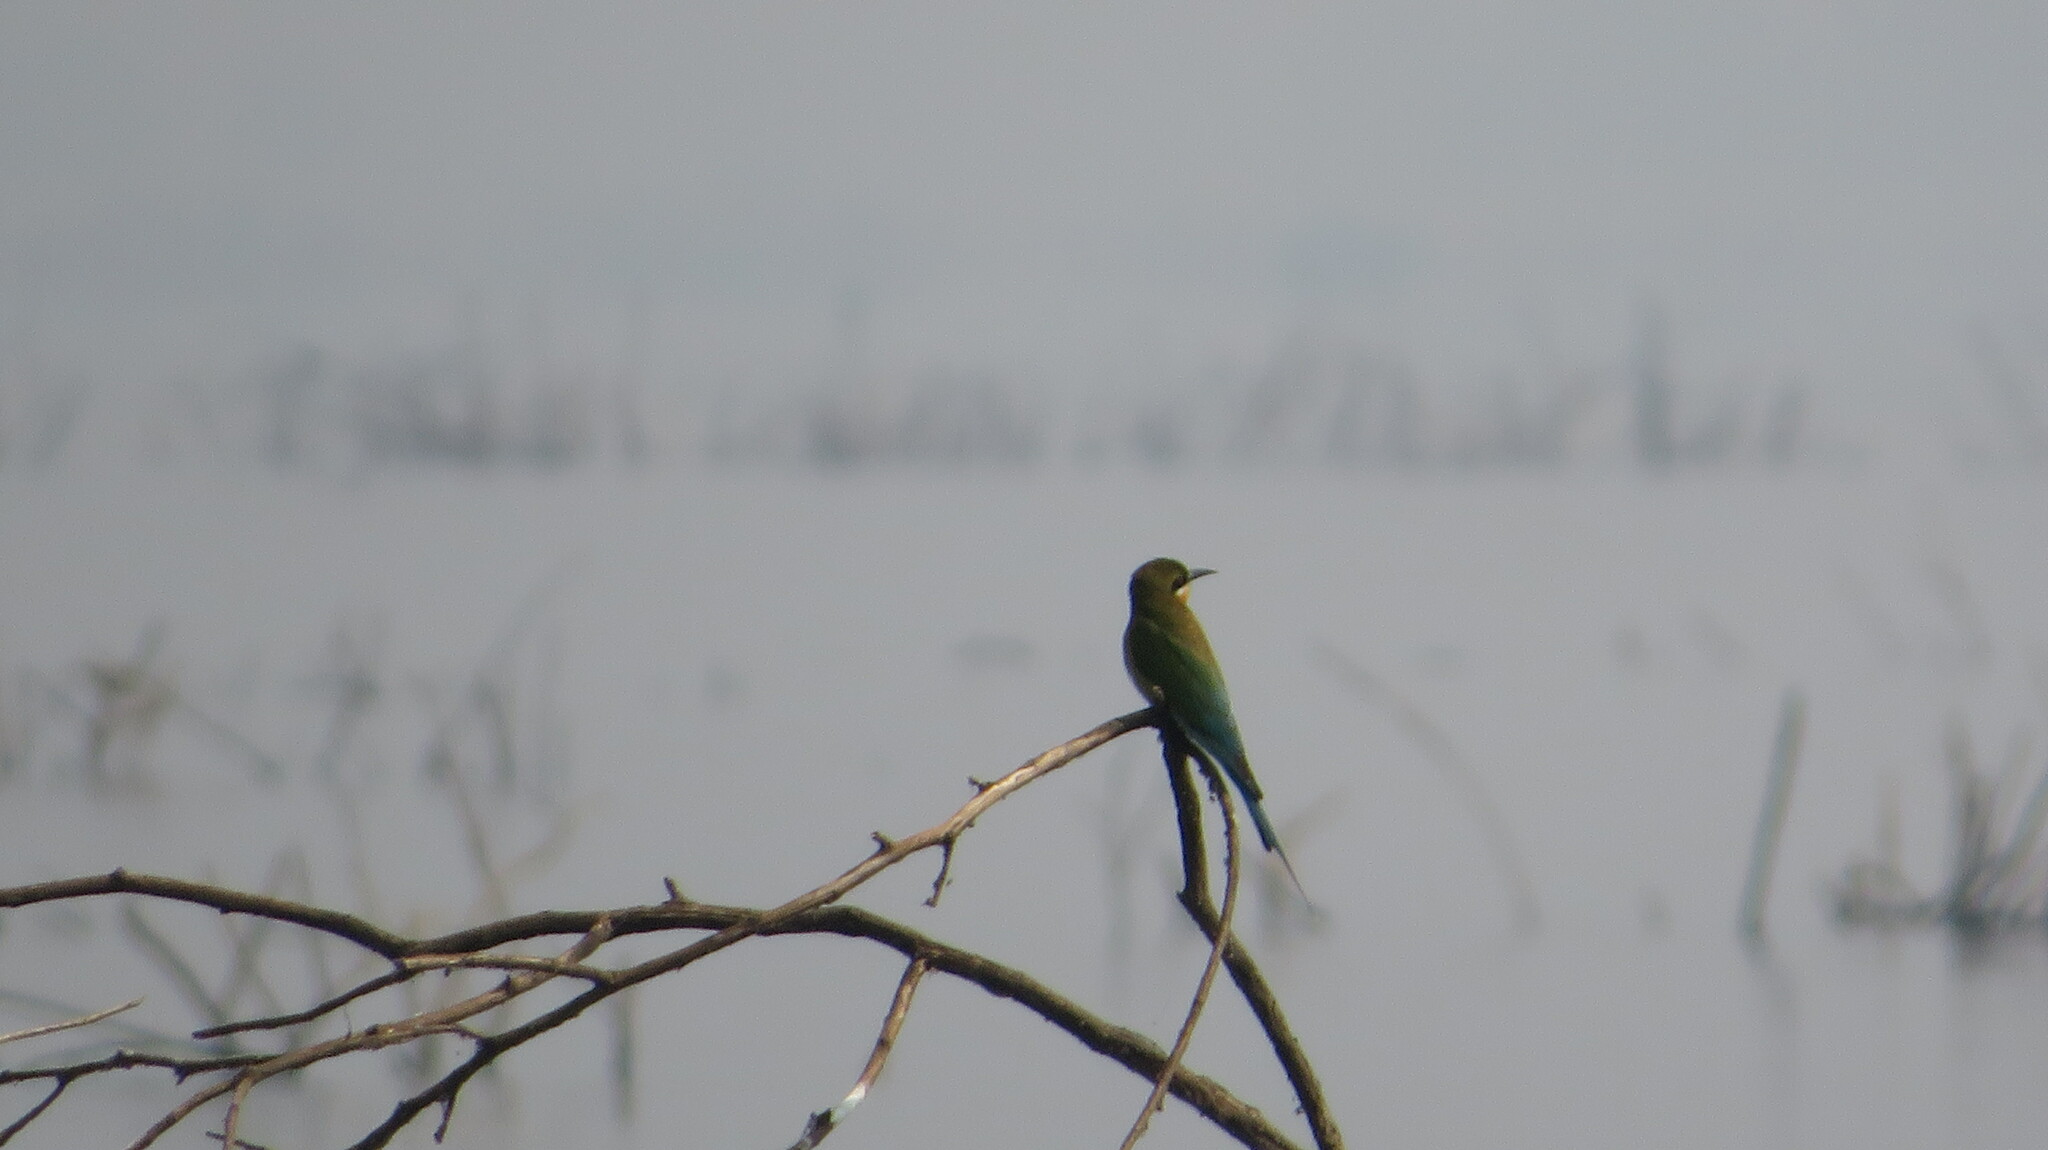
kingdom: Animalia
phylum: Chordata
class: Aves
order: Coraciiformes
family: Meropidae
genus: Merops
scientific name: Merops philippinus
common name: Blue-tailed bee-eater
